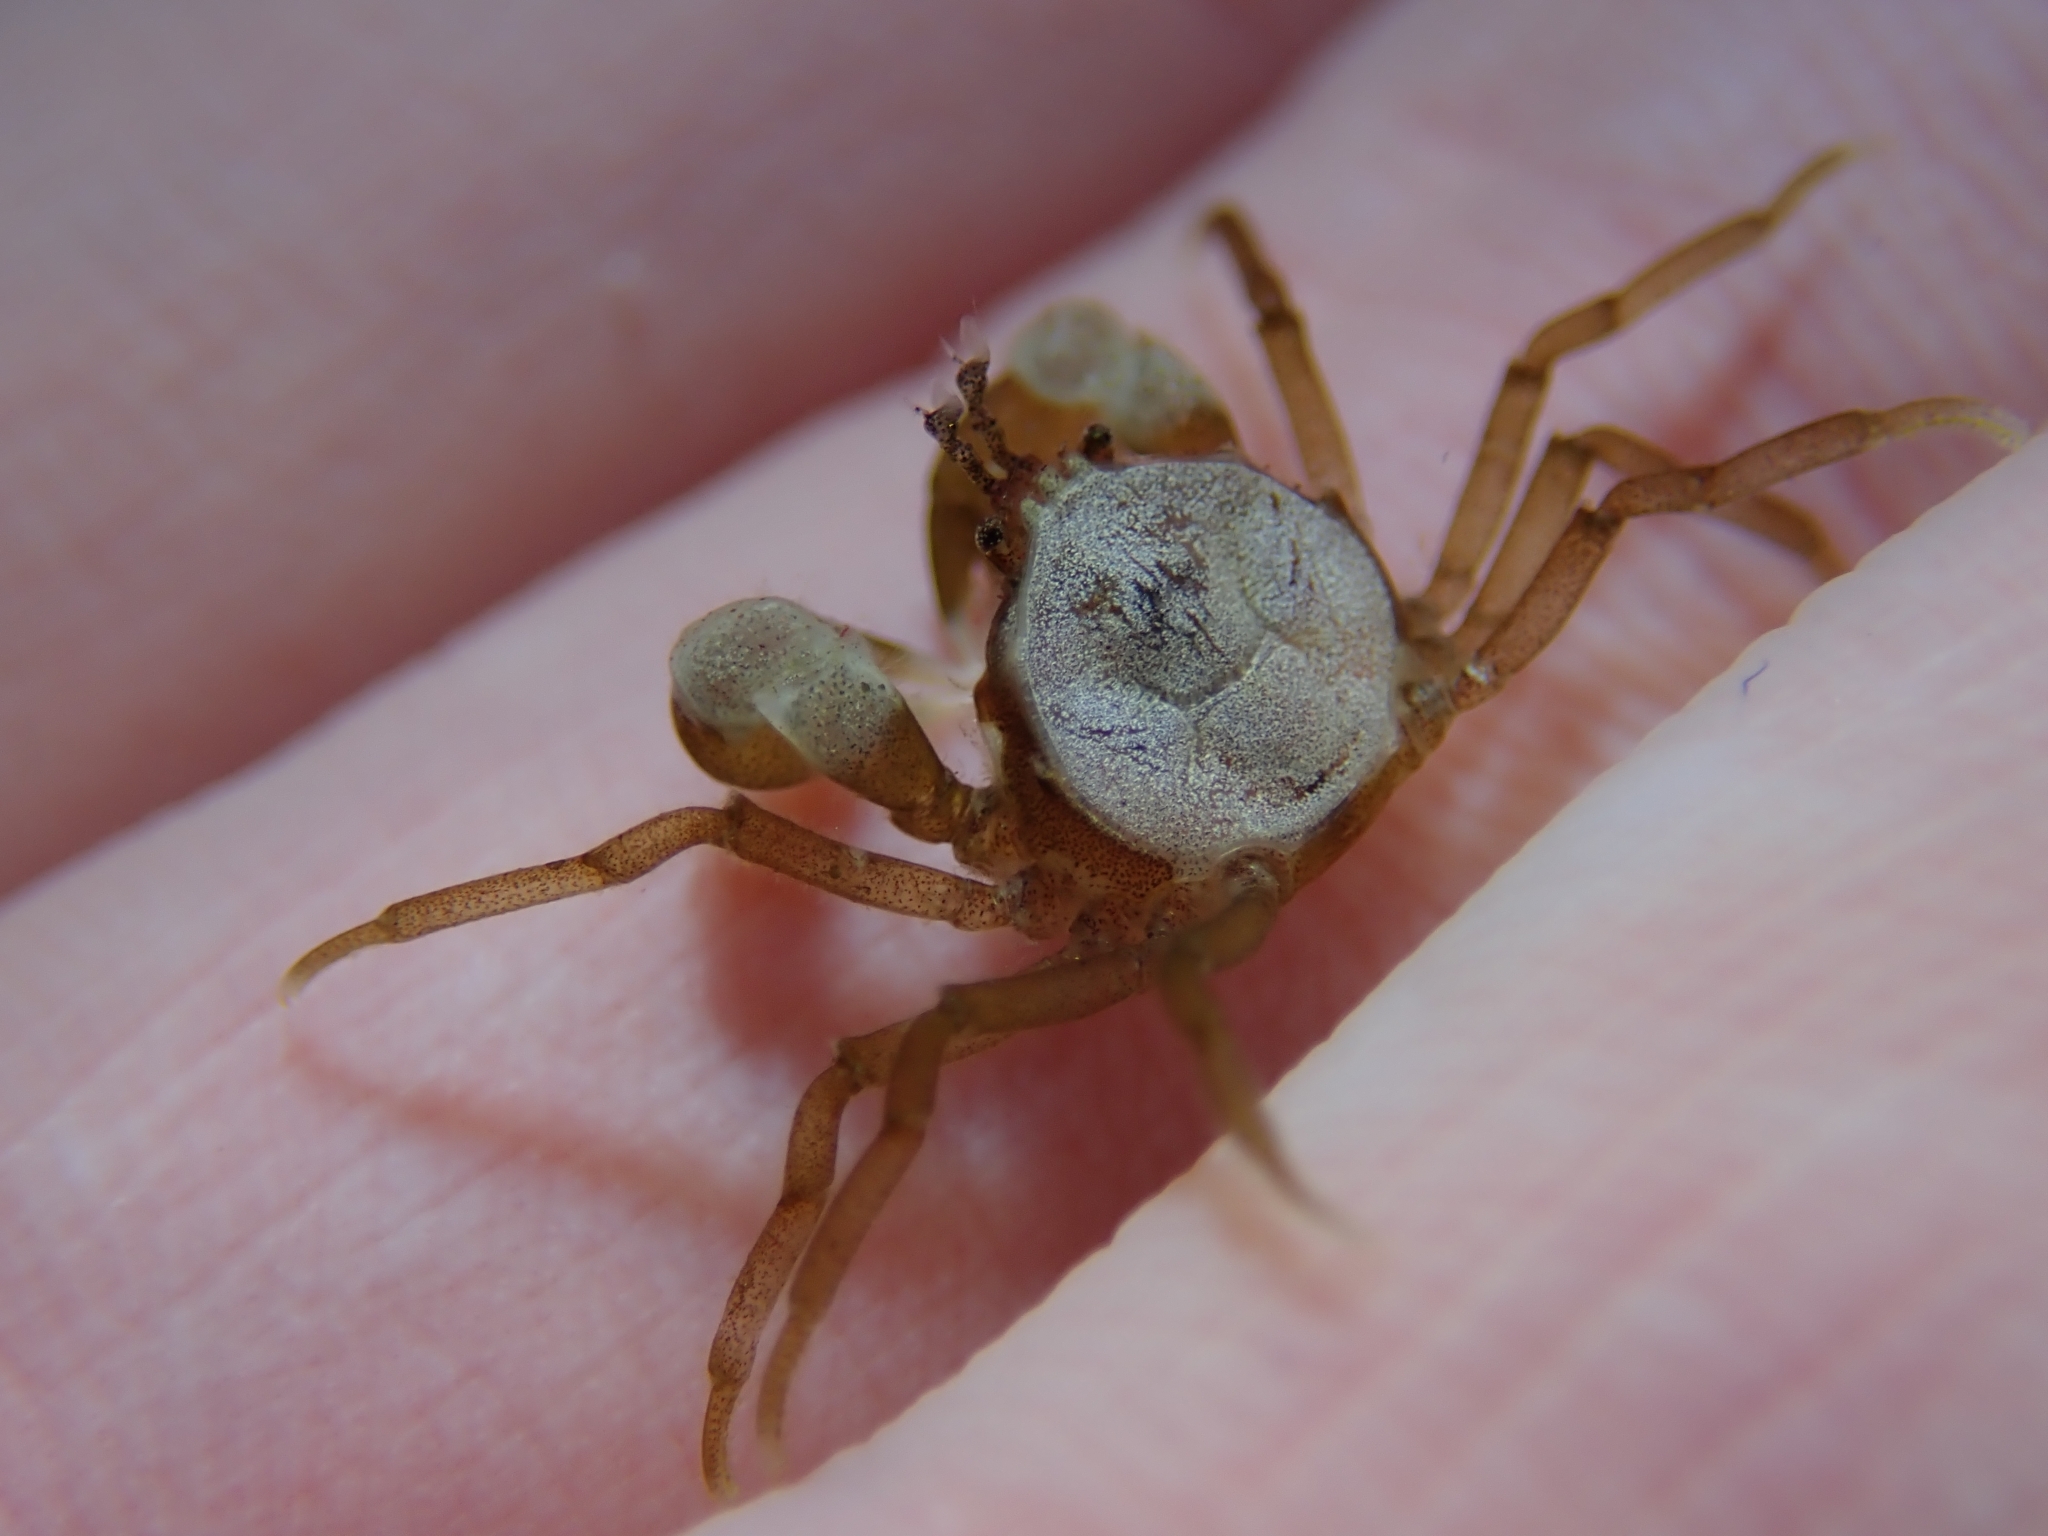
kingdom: Animalia
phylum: Arthropoda
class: Malacostraca
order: Decapoda
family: Hymenosomatidae
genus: Halicarcinus
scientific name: Halicarcinus ovatus
